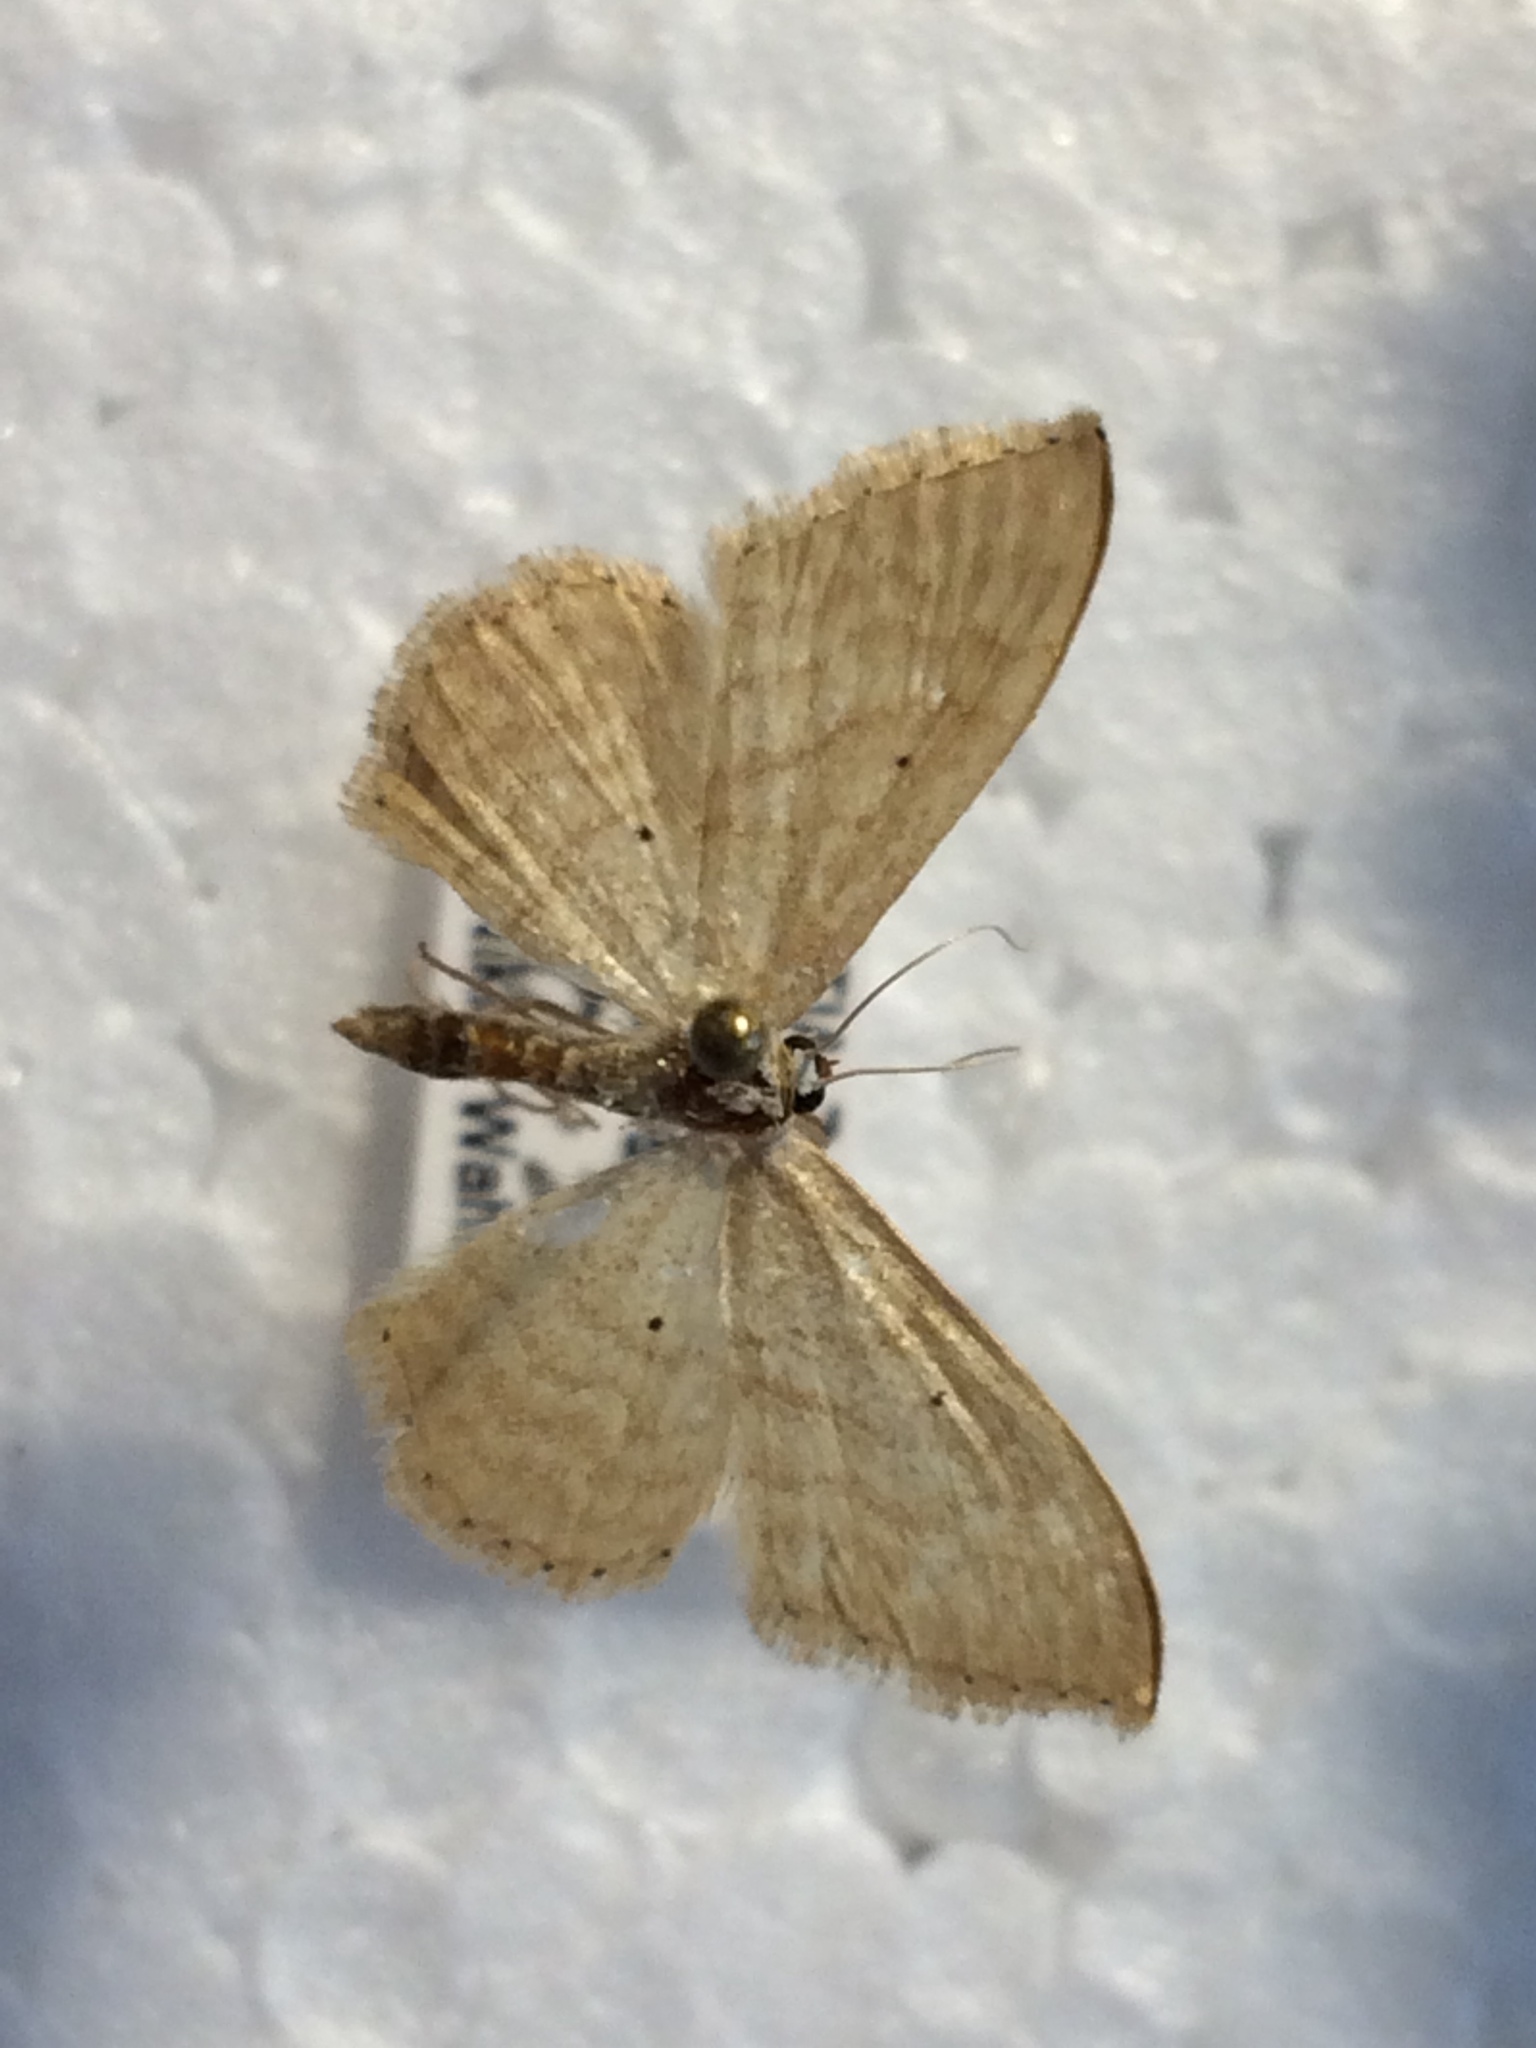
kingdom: Animalia
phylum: Arthropoda
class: Insecta
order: Lepidoptera
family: Geometridae
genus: Idaea
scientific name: Idaea consanguinaria
